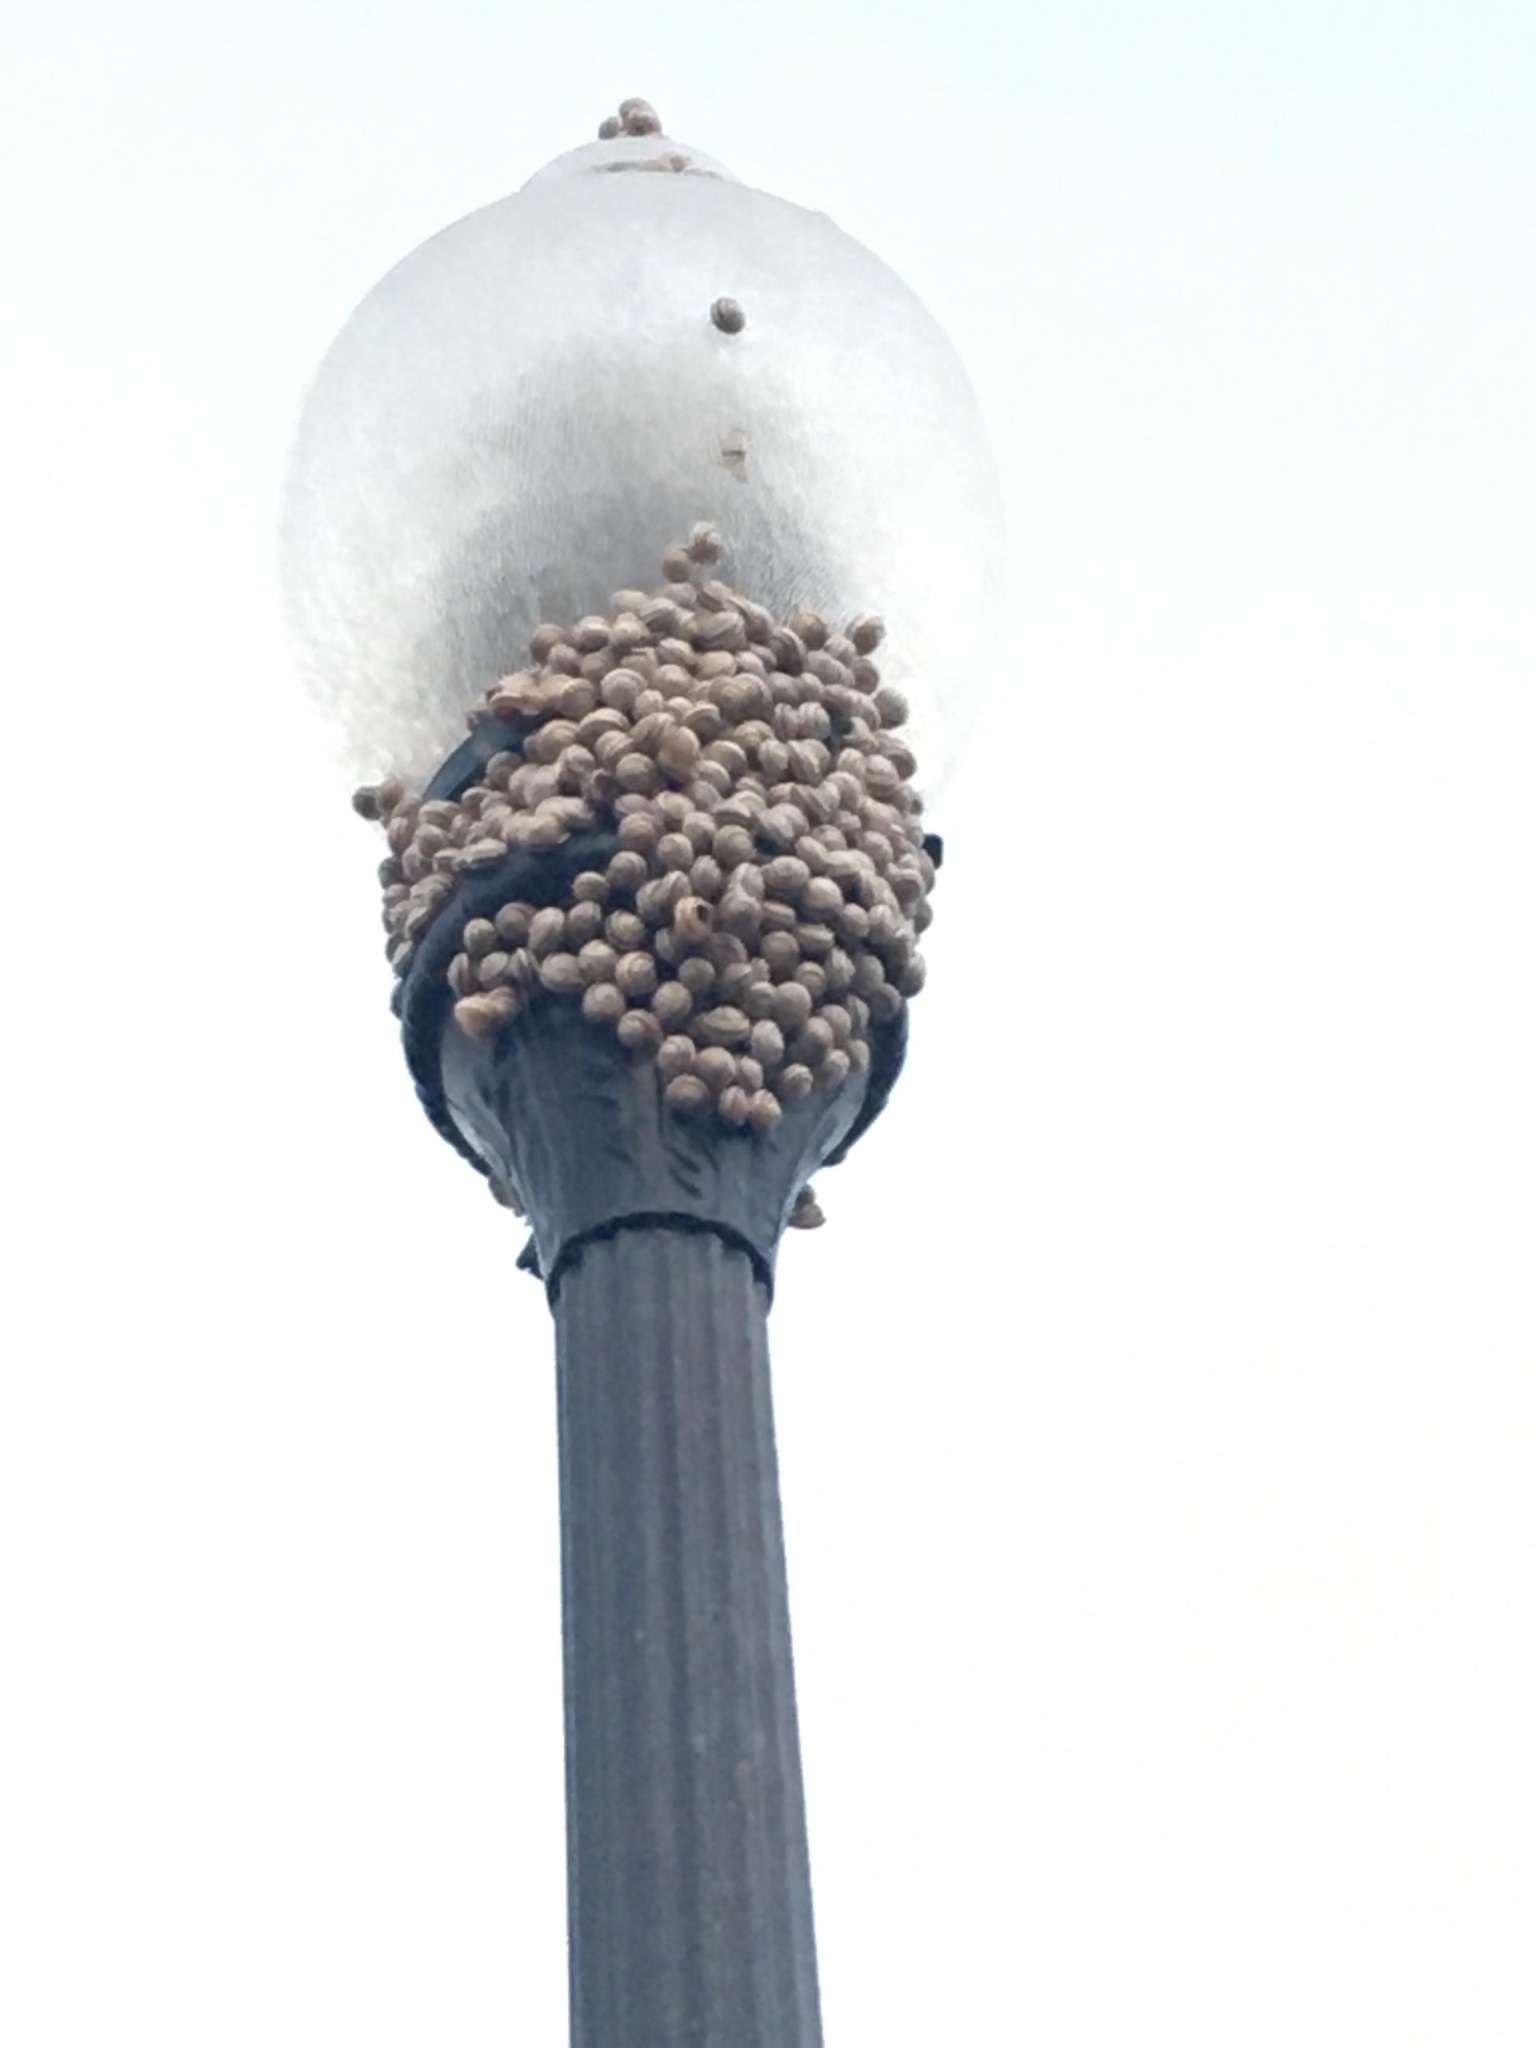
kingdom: Animalia
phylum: Mollusca
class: Gastropoda
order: Stylommatophora
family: Helicidae
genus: Otala
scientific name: Otala lactea
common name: Milk snail
